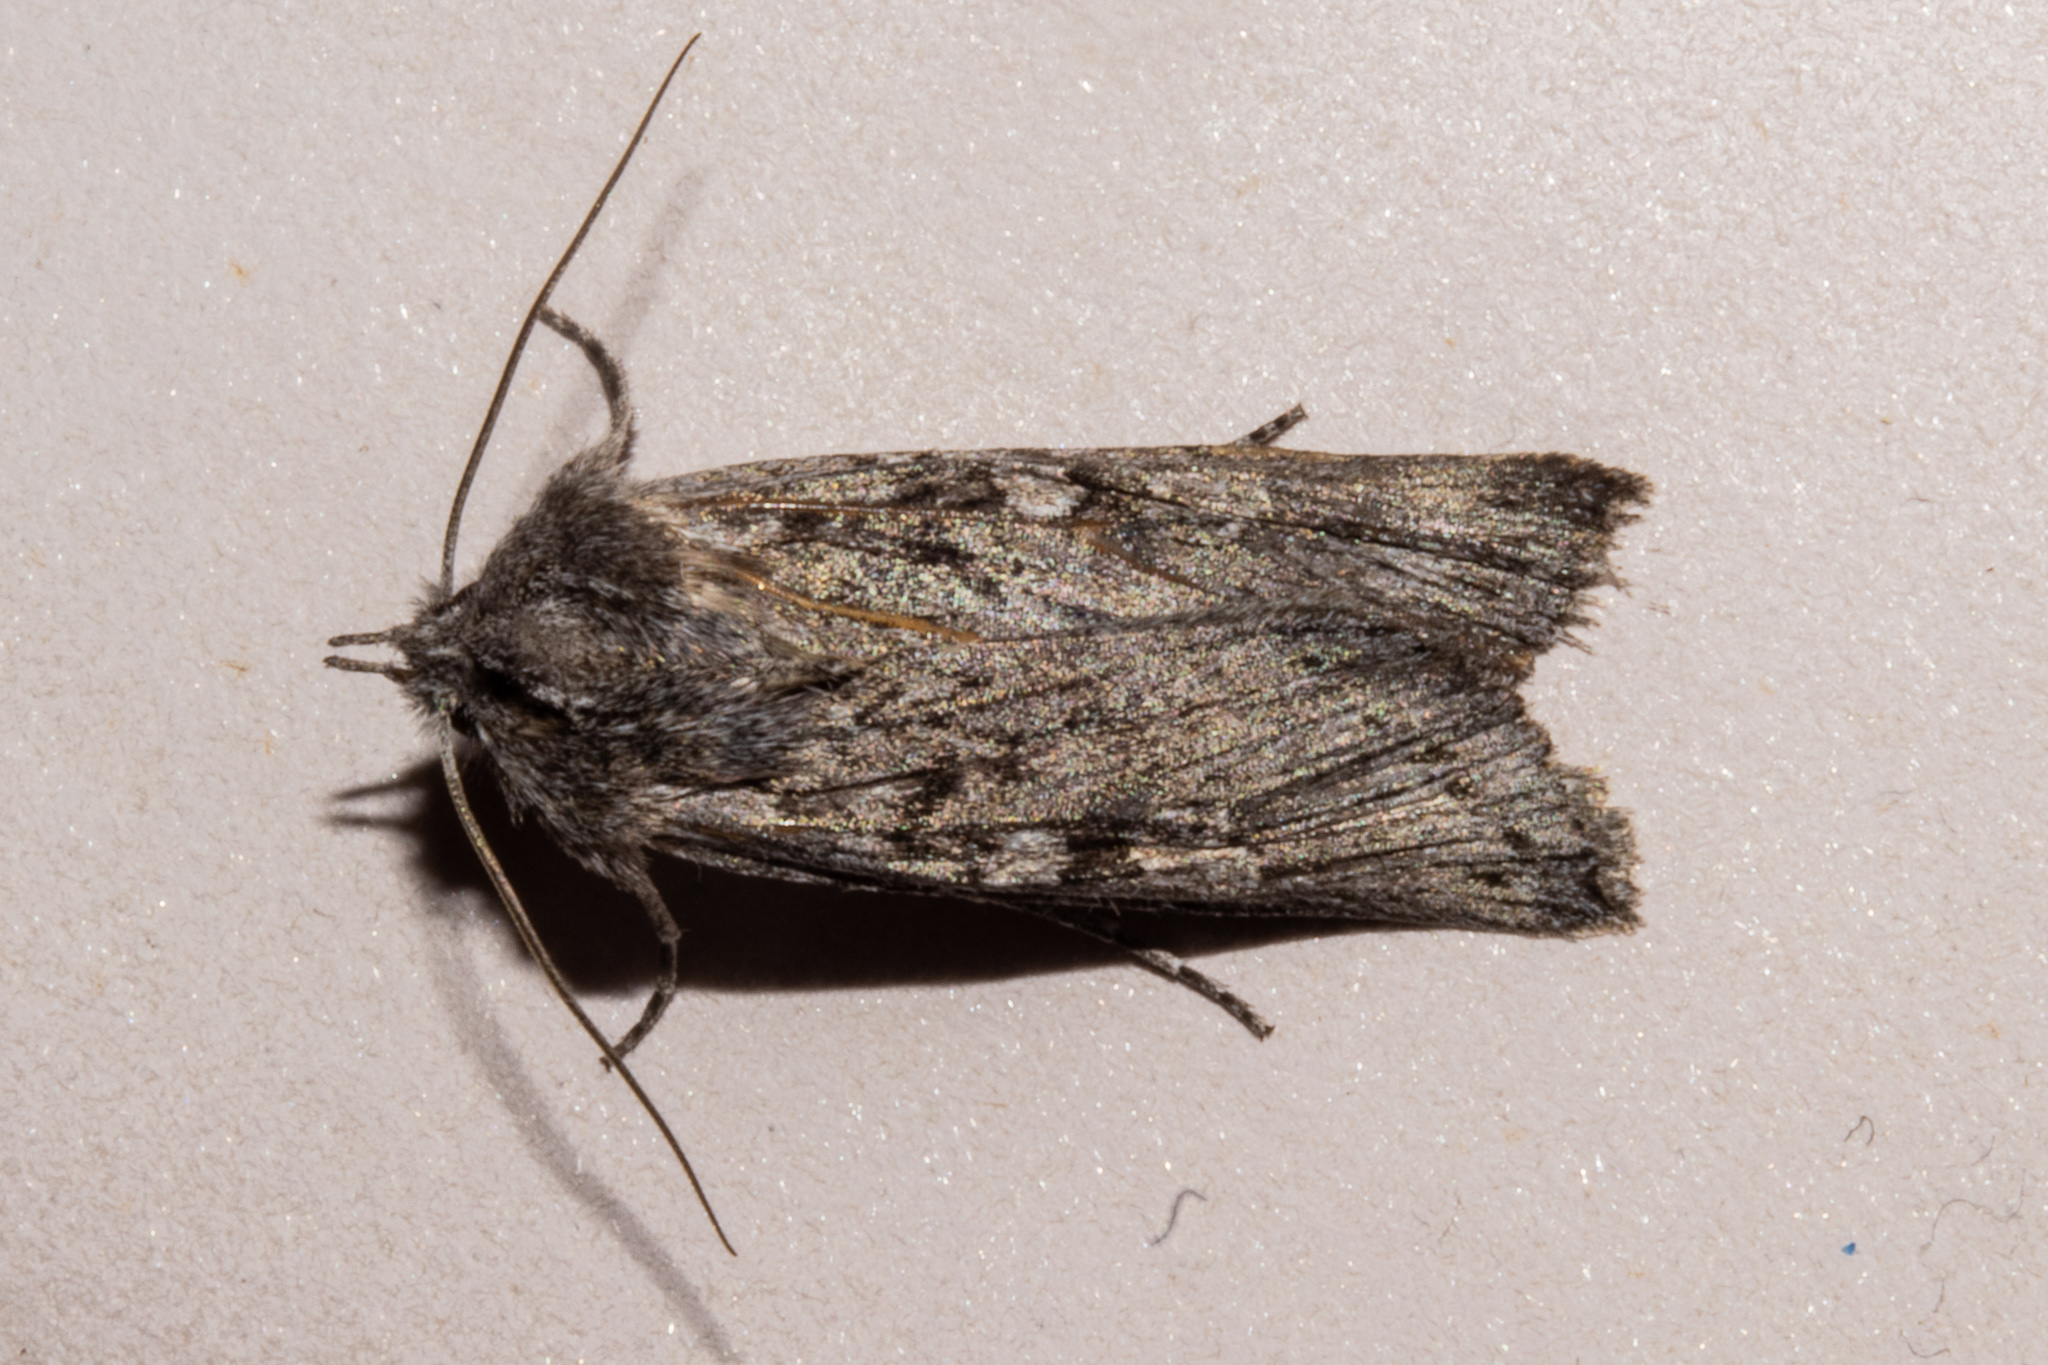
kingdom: Animalia
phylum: Arthropoda
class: Insecta
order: Lepidoptera
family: Noctuidae
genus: Physetica
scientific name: Physetica phricias
